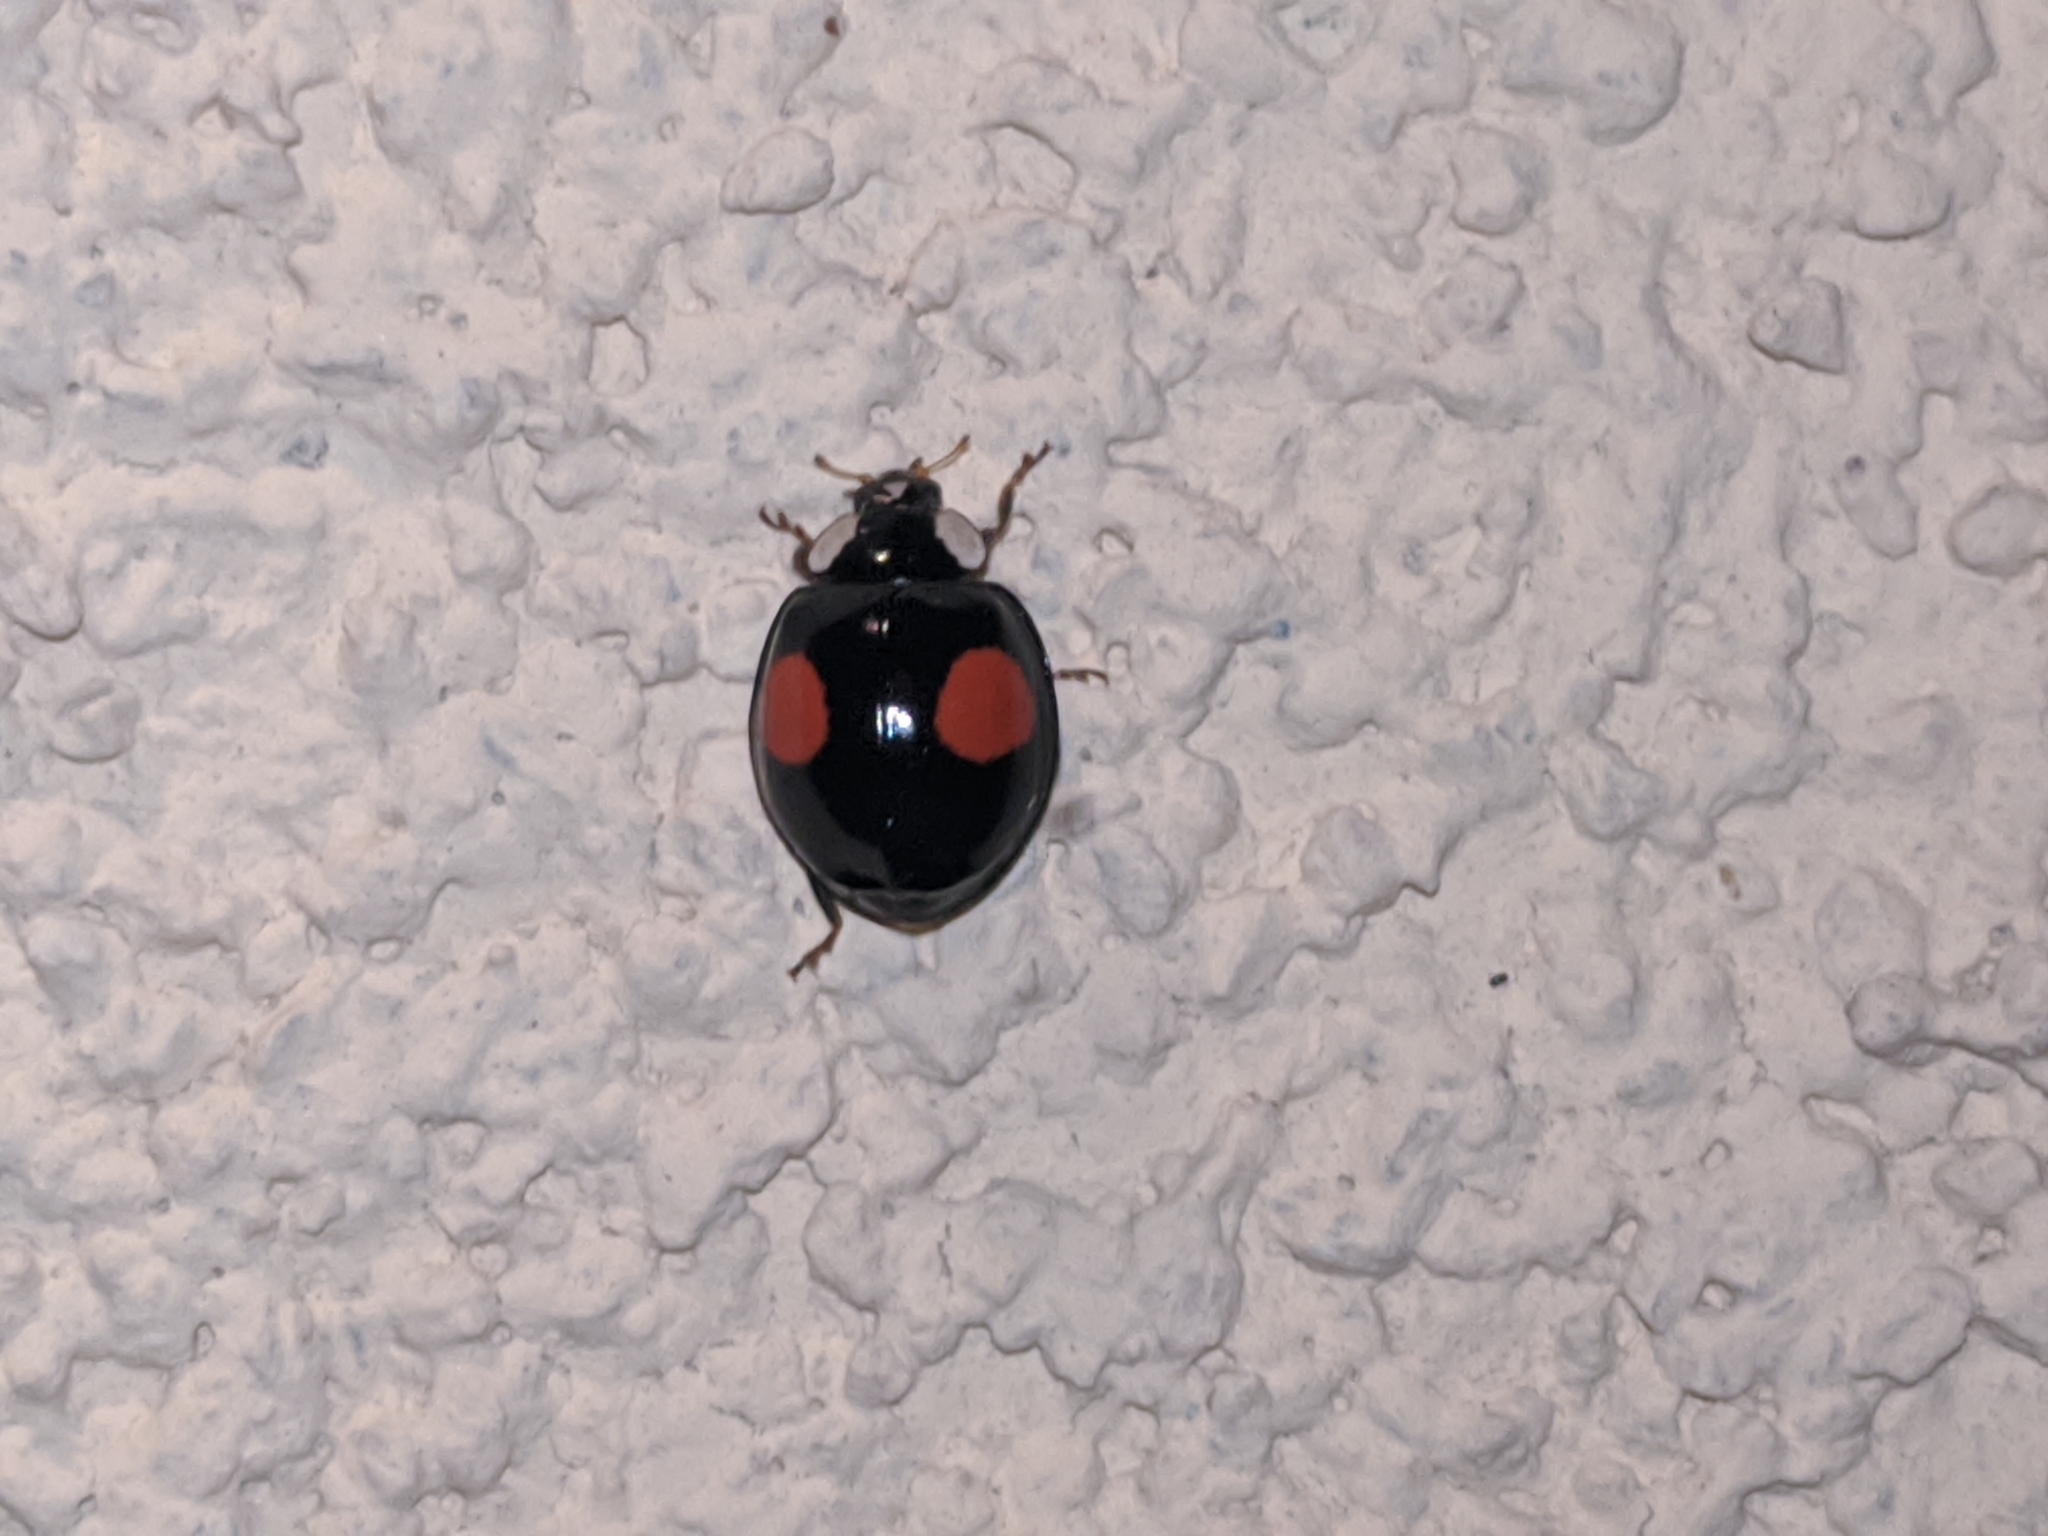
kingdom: Animalia
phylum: Arthropoda
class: Insecta
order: Coleoptera
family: Coccinellidae
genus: Harmonia
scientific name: Harmonia axyridis
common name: Harlequin ladybird
